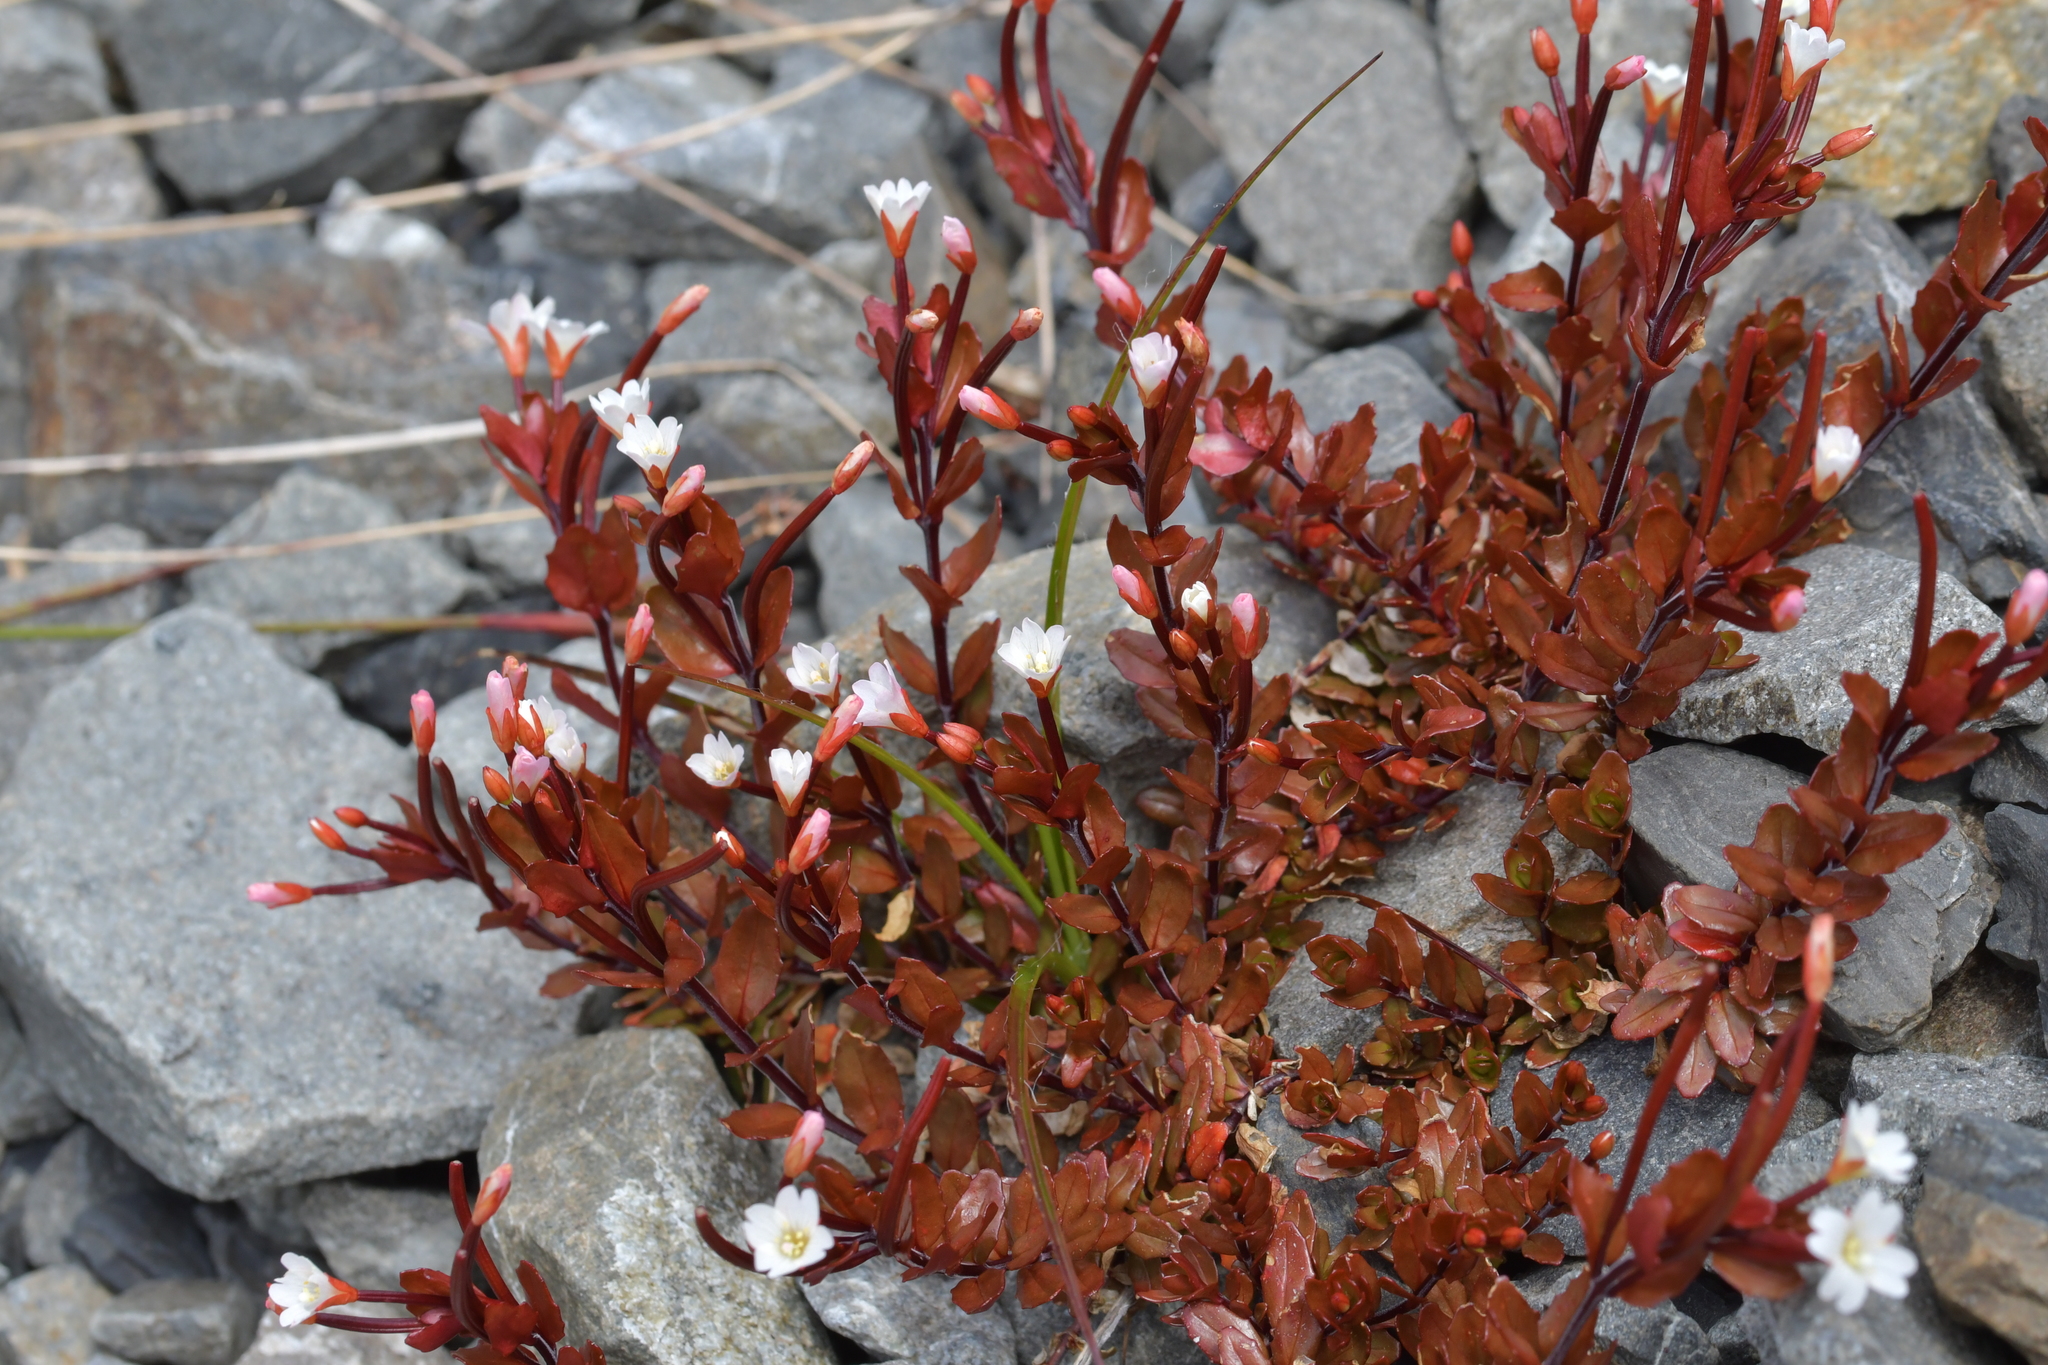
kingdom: Plantae
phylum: Tracheophyta
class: Magnoliopsida
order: Myrtales
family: Onagraceae
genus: Epilobium
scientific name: Epilobium glabellum
